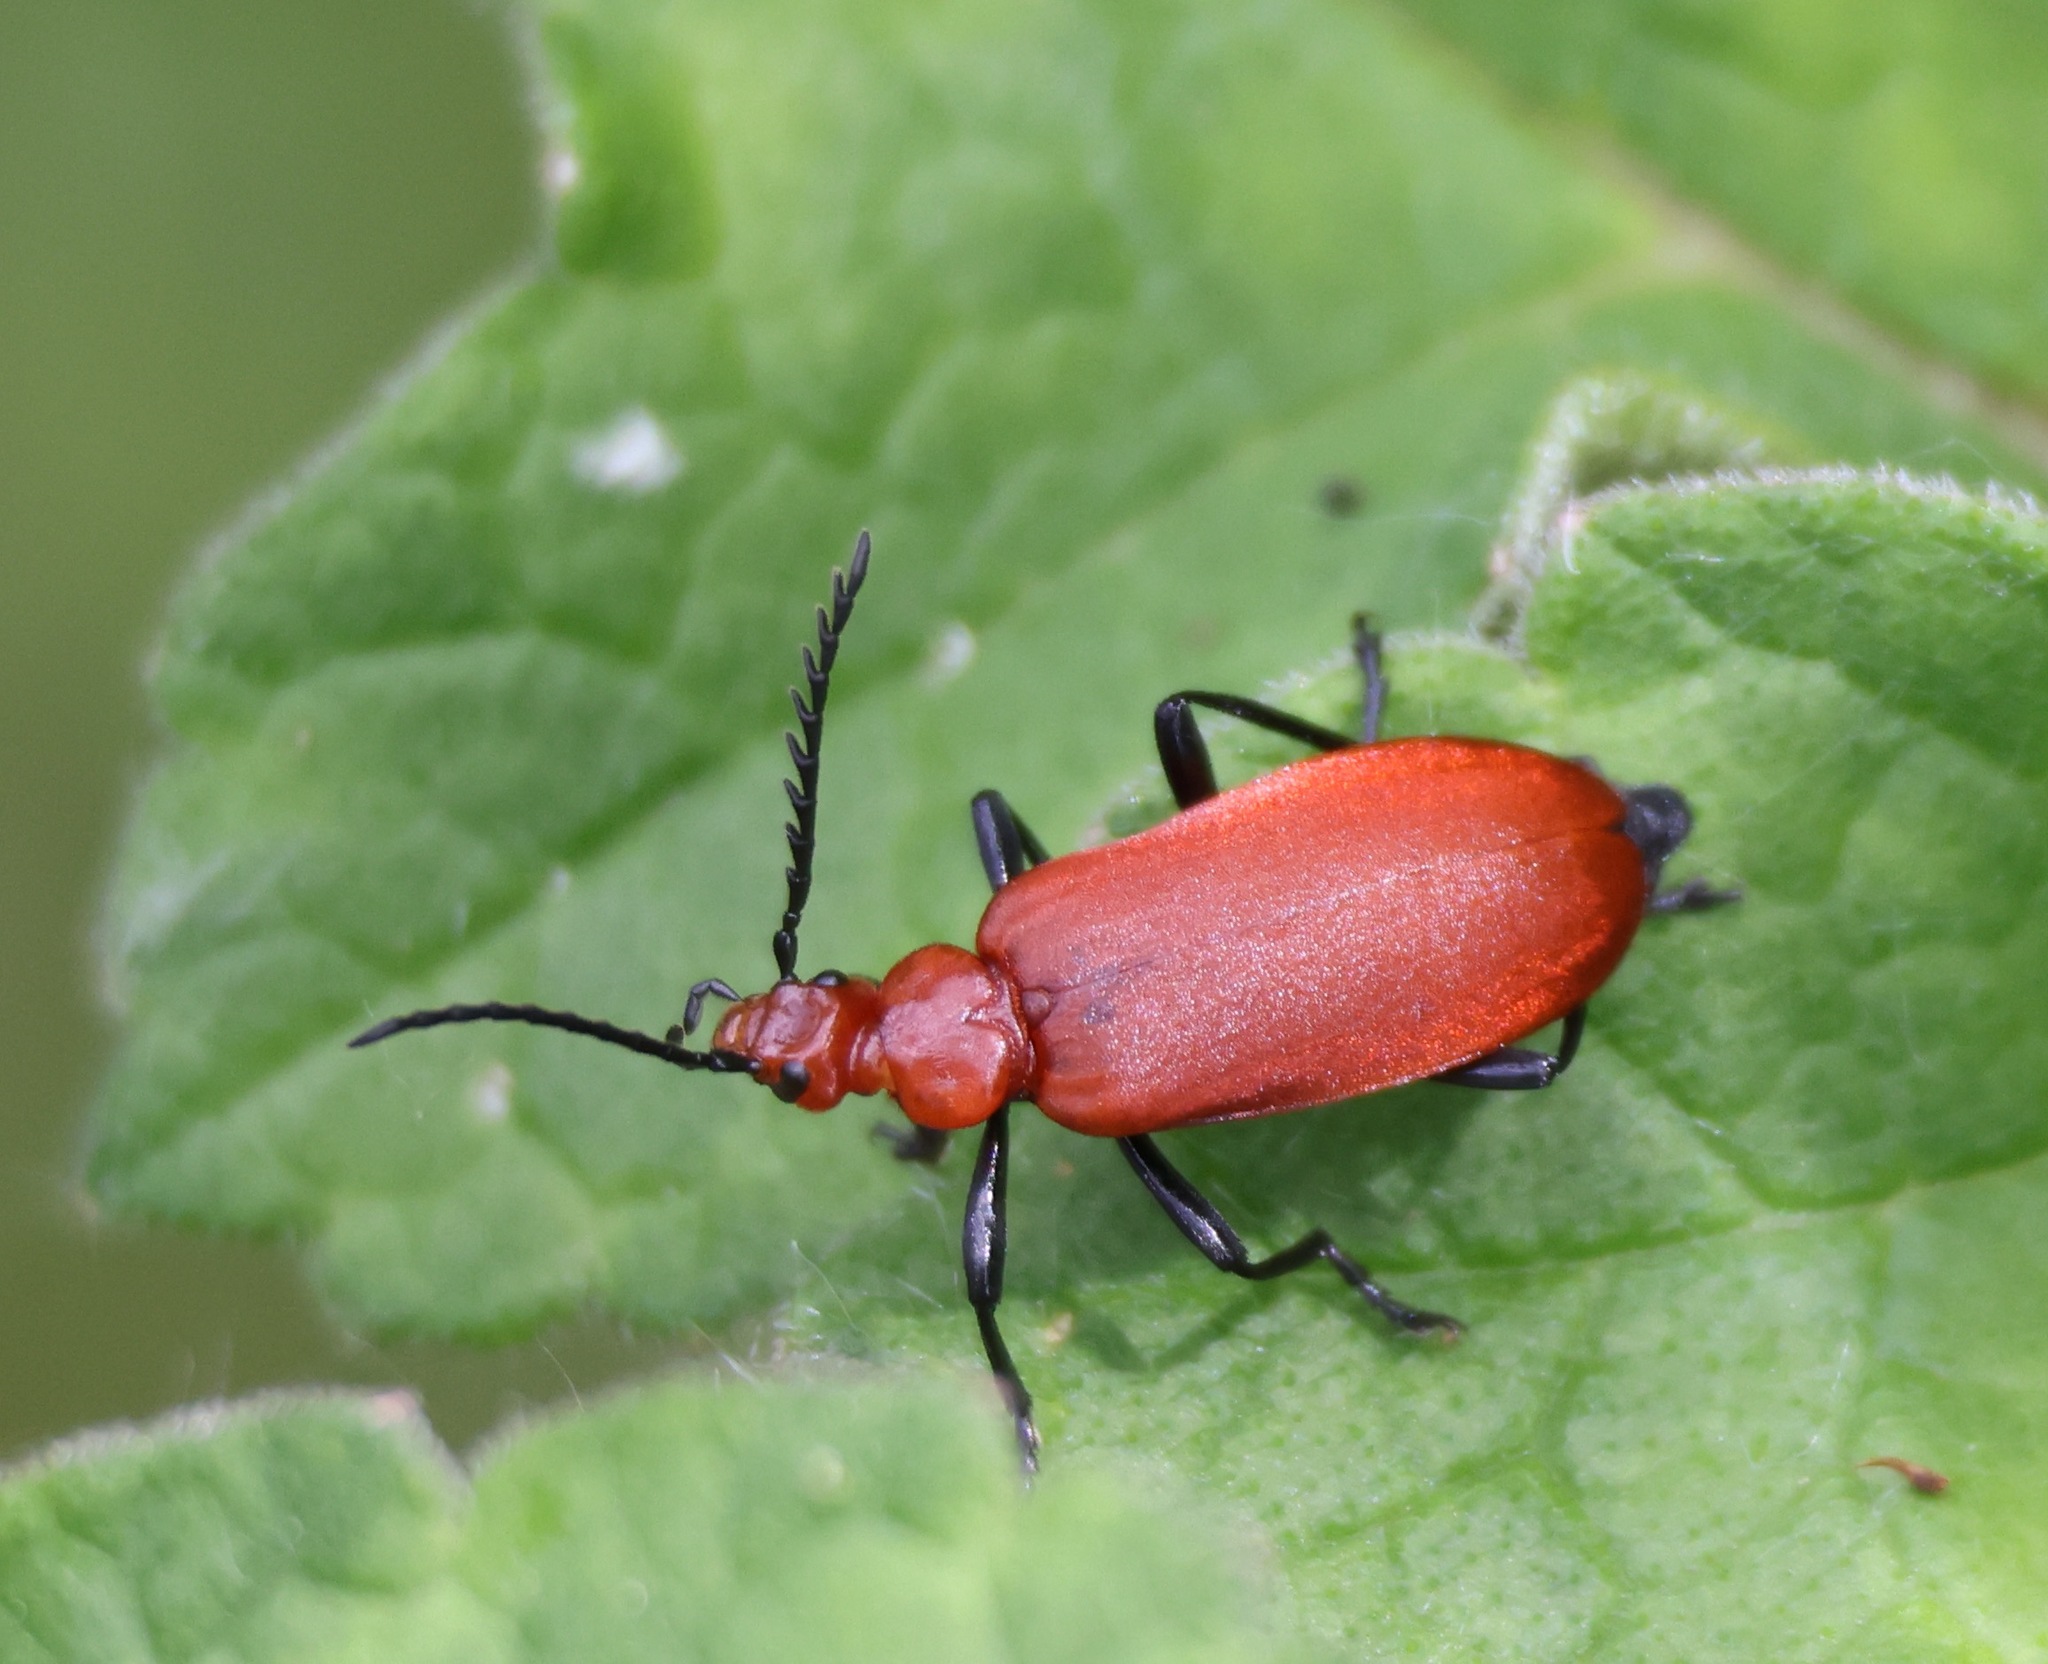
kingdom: Animalia
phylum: Arthropoda
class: Insecta
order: Coleoptera
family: Pyrochroidae
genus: Pyrochroa
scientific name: Pyrochroa serraticornis
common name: Red-headed cardinal beetle
